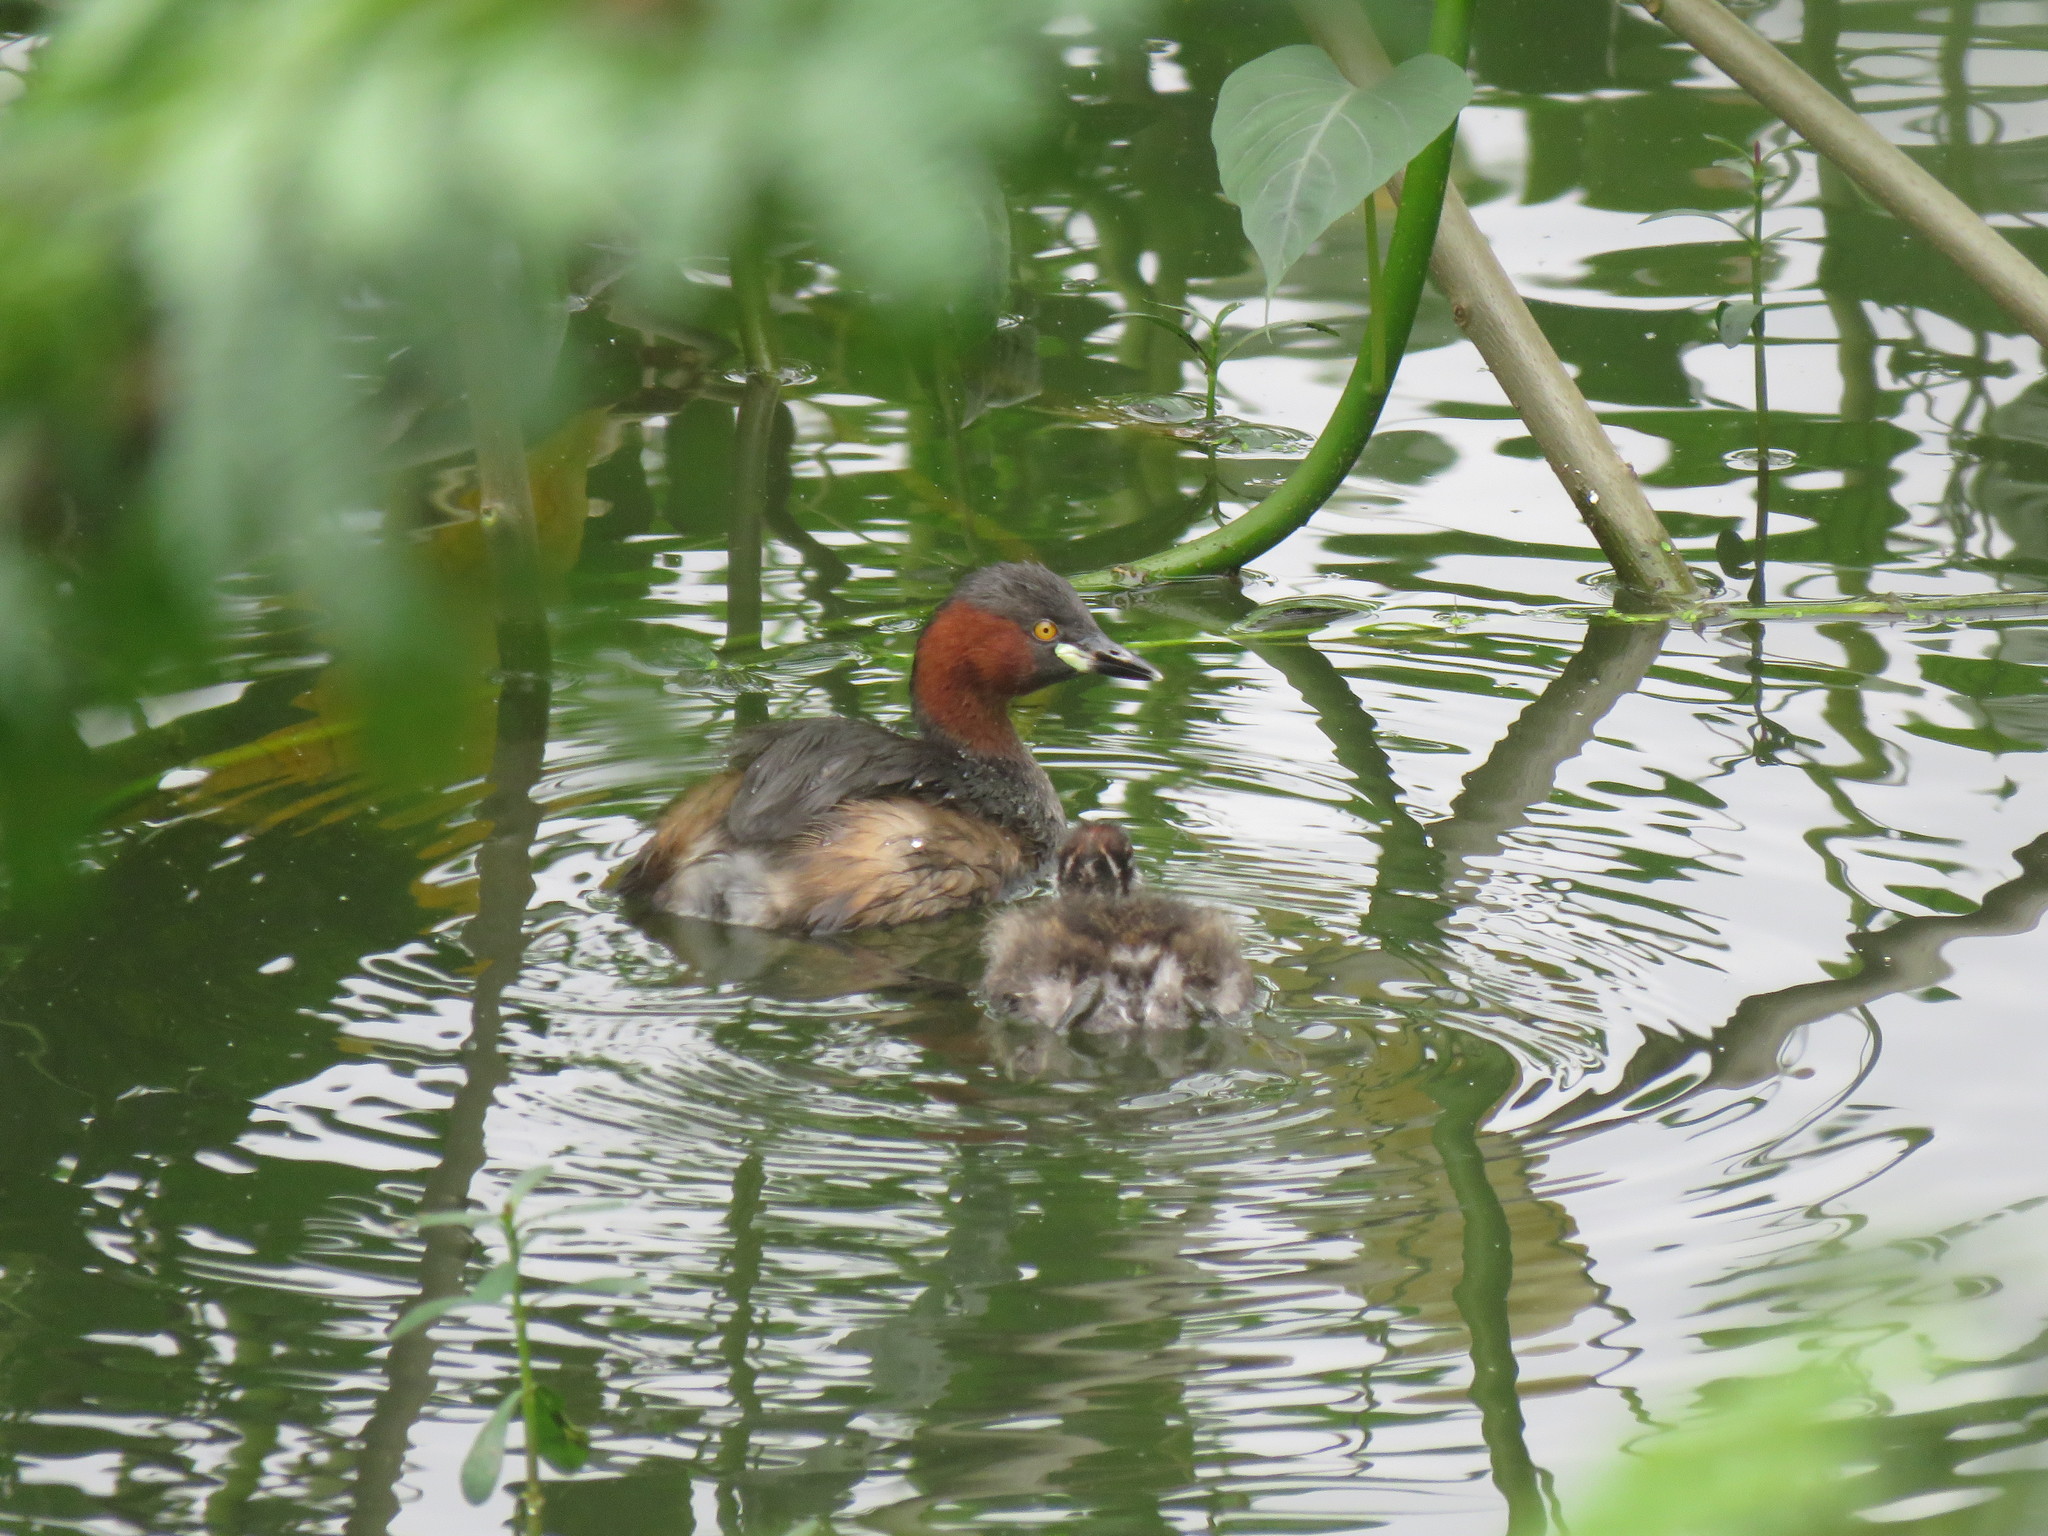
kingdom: Animalia
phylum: Chordata
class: Aves
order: Podicipediformes
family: Podicipedidae
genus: Tachybaptus
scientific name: Tachybaptus ruficollis
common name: Little grebe
